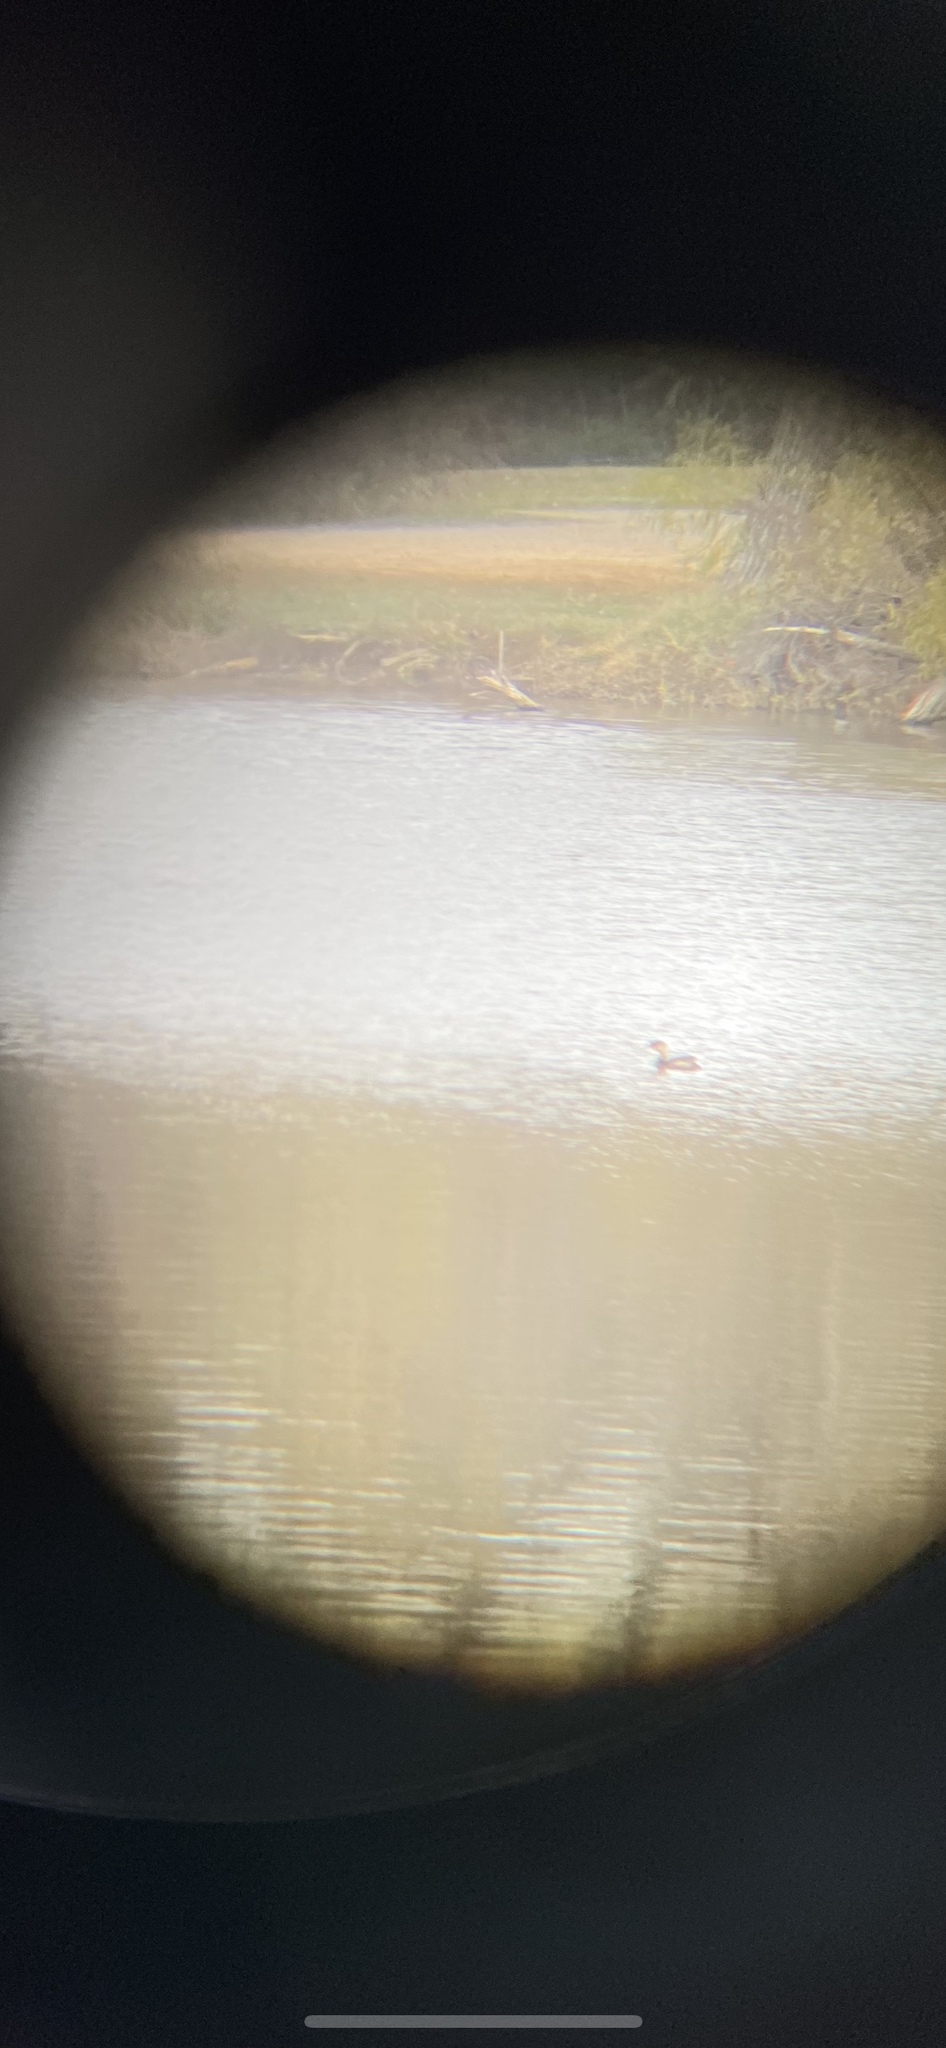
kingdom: Animalia
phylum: Chordata
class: Aves
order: Podicipediformes
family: Podicipedidae
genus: Podilymbus
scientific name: Podilymbus podiceps
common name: Pied-billed grebe
